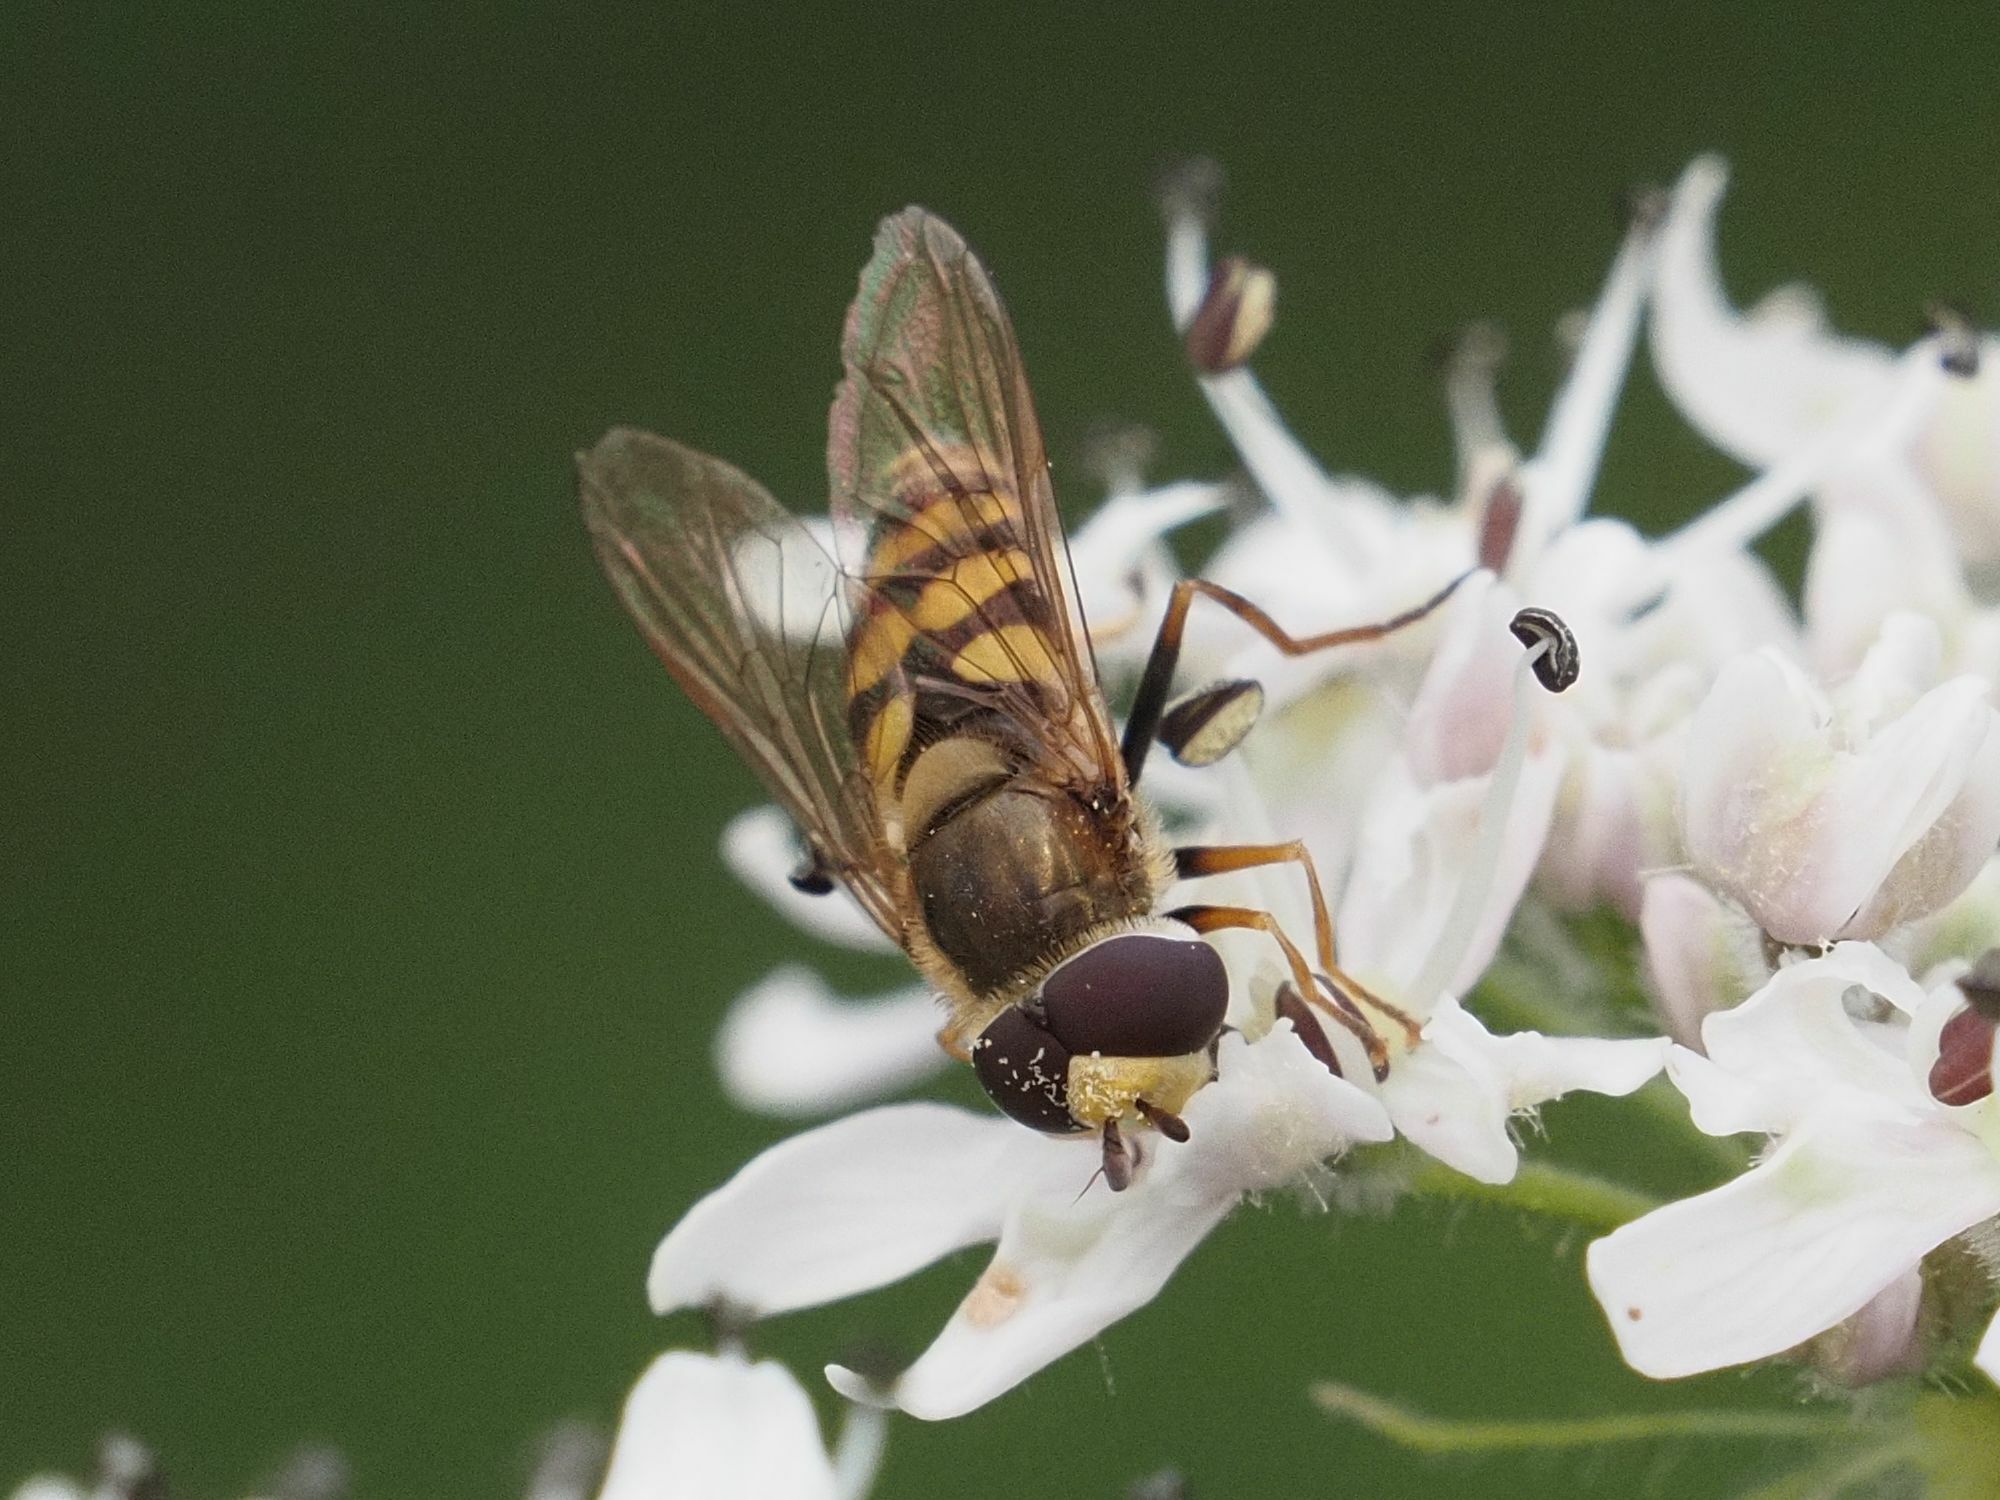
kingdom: Animalia
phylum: Arthropoda
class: Insecta
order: Diptera
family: Syrphidae
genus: Eupeodes
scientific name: Eupeodes corollae
